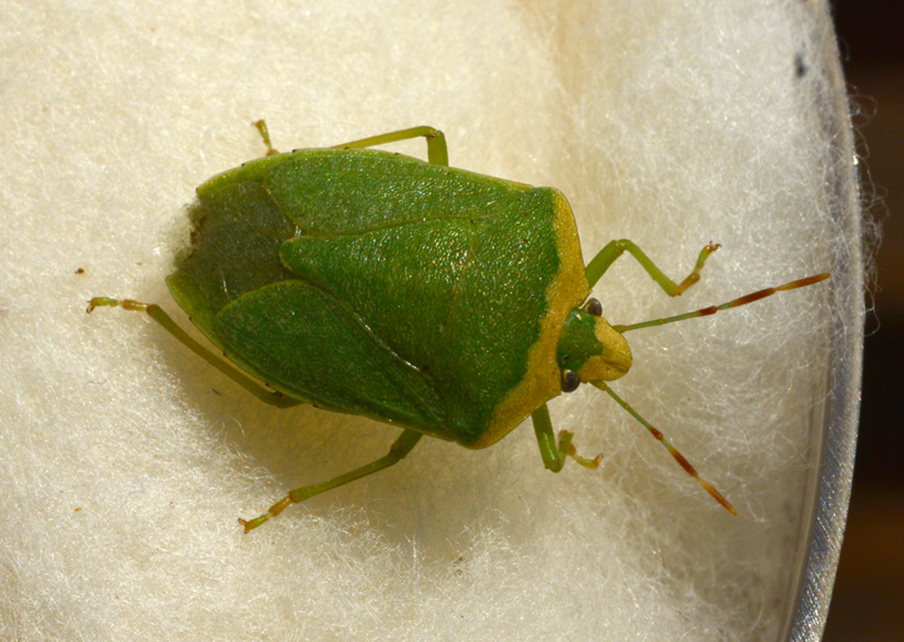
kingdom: Animalia
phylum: Arthropoda
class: Insecta
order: Hemiptera
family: Pentatomidae
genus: Nezara
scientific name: Nezara viridula
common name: Southern green stink bug
